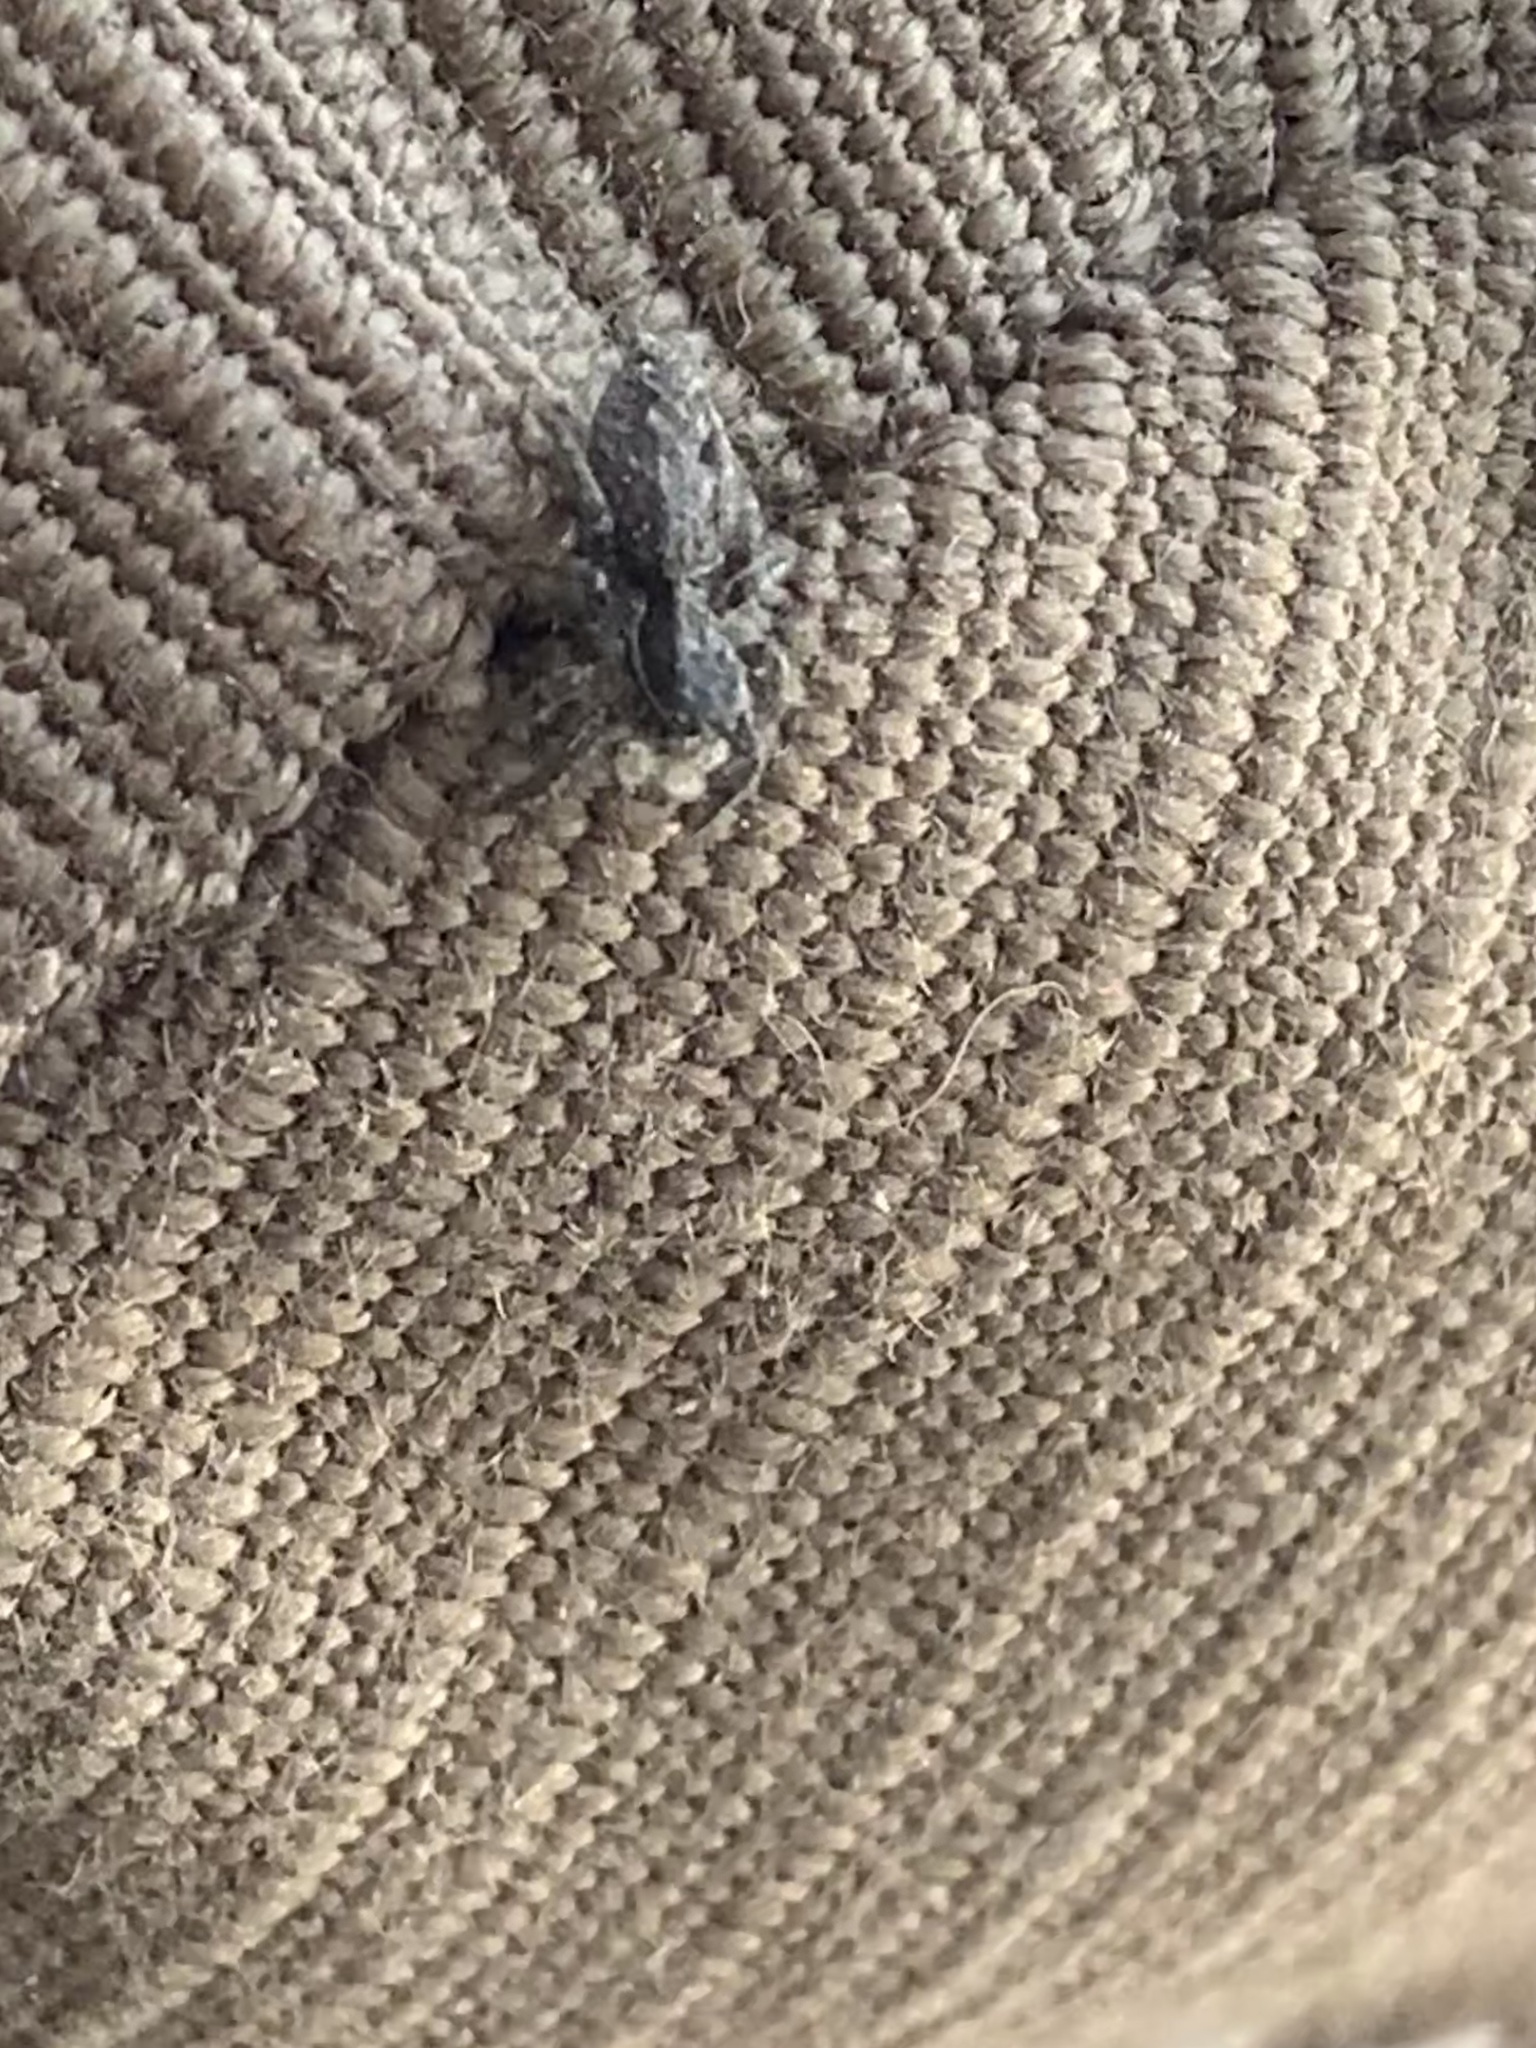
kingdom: Animalia
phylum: Arthropoda
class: Arachnida
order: Araneae
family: Salticidae
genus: Platycryptus
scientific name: Platycryptus californicus
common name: Jumping spiders
